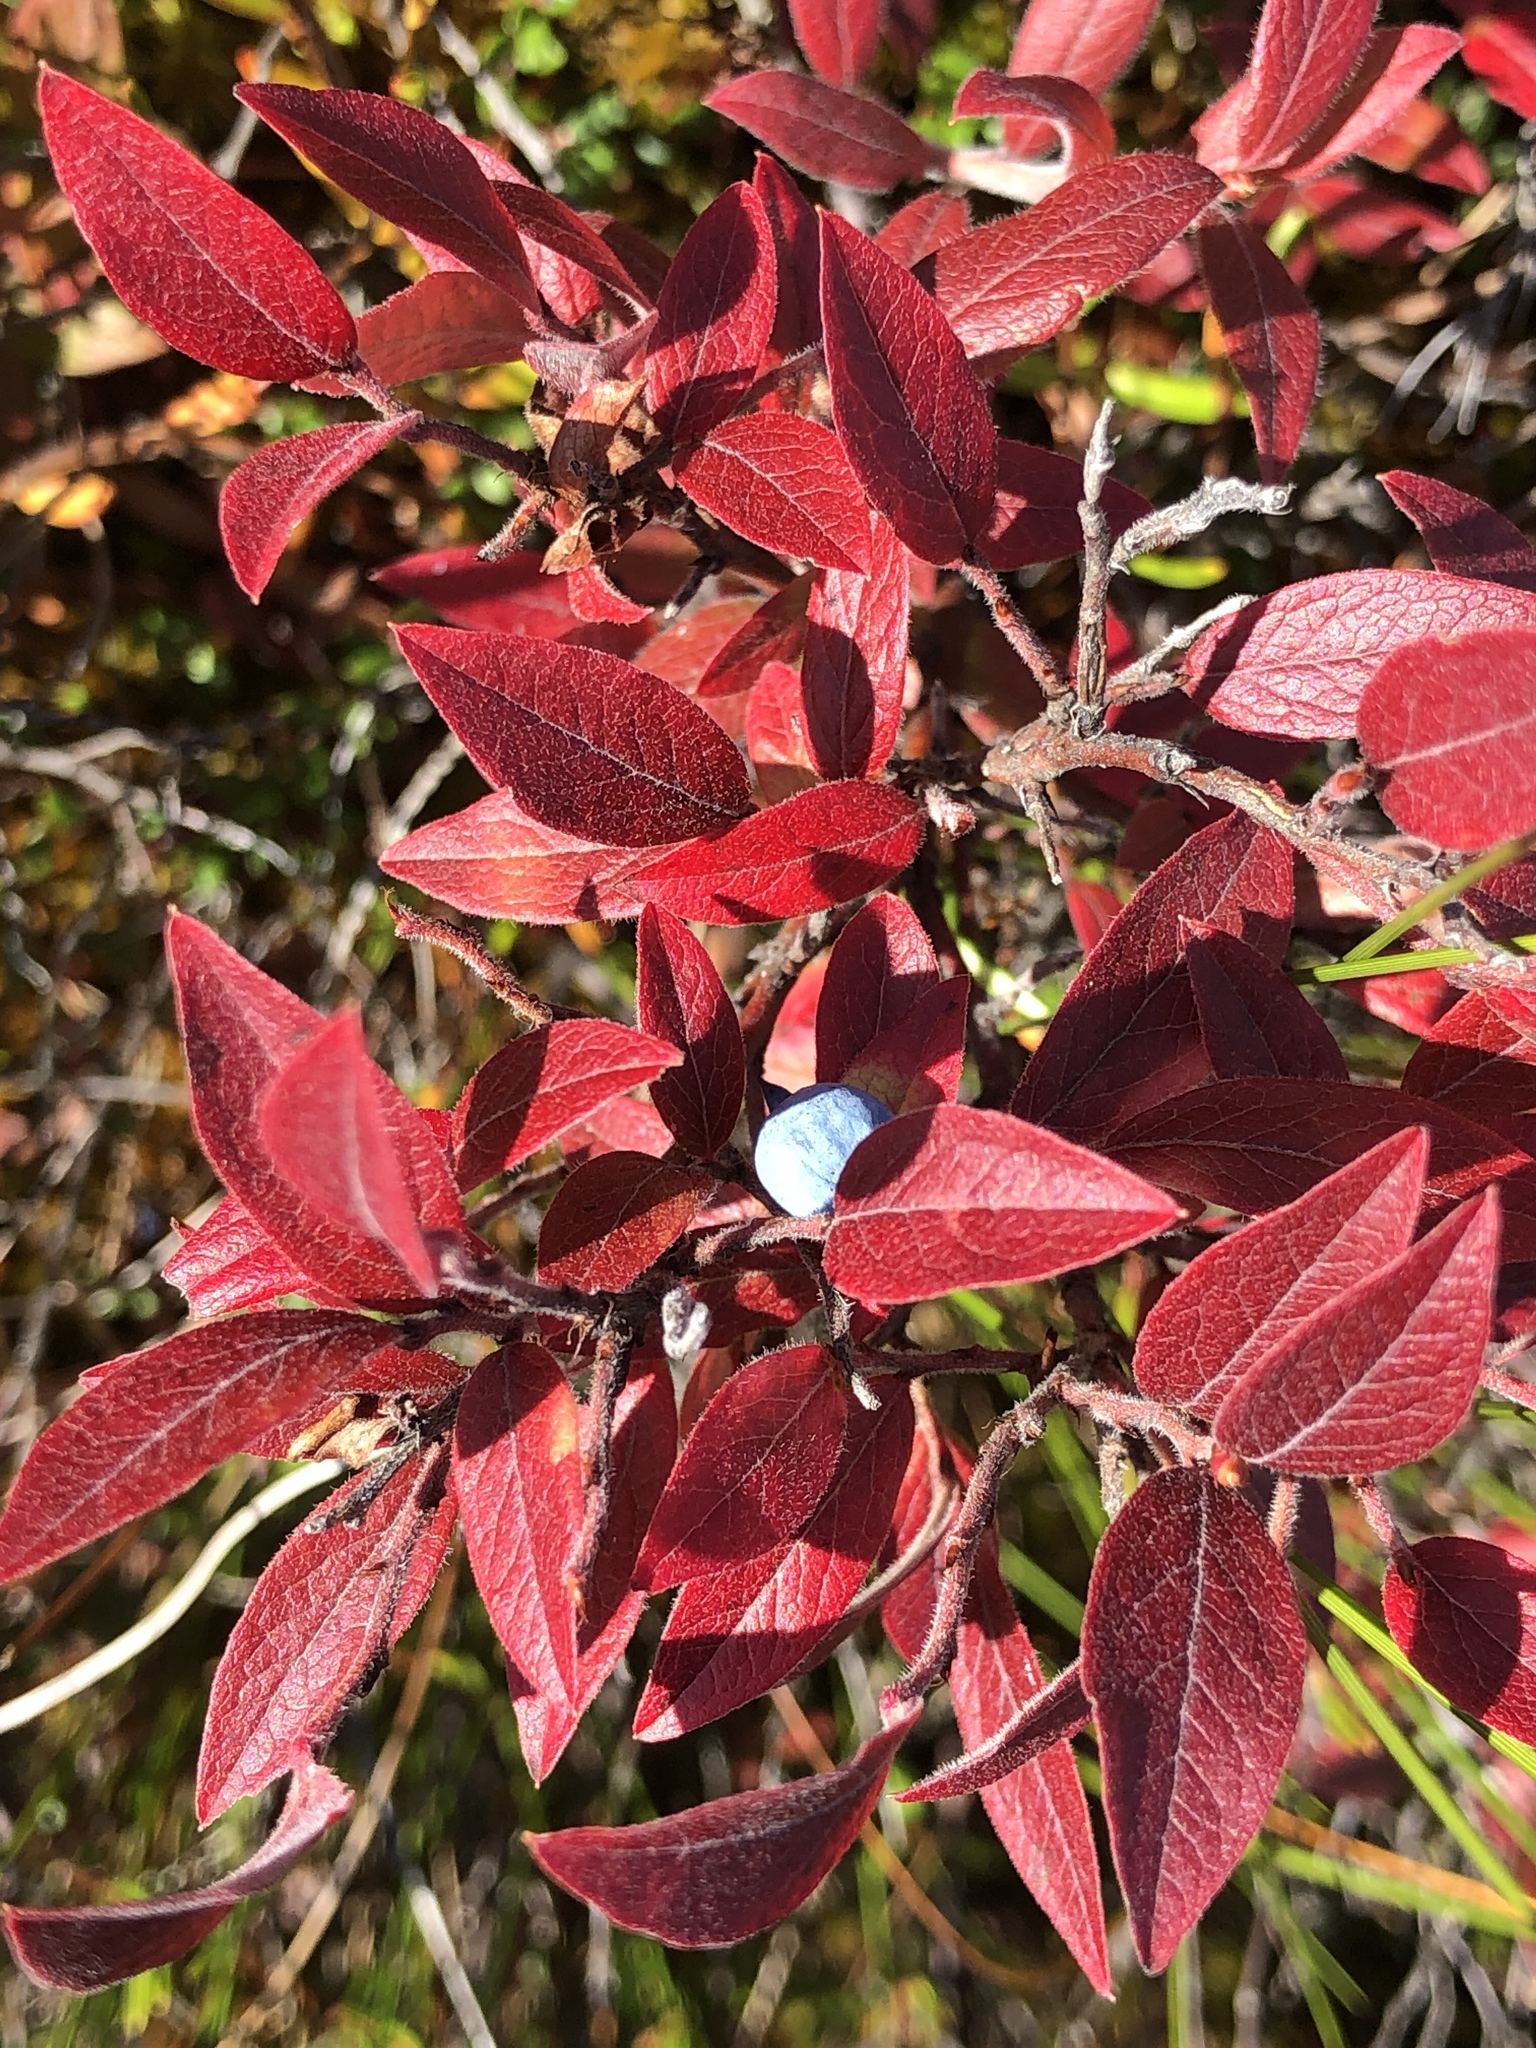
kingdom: Plantae
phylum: Tracheophyta
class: Magnoliopsida
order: Ericales
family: Ericaceae
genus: Vaccinium
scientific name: Vaccinium myrtilloides
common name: Canada blueberry
